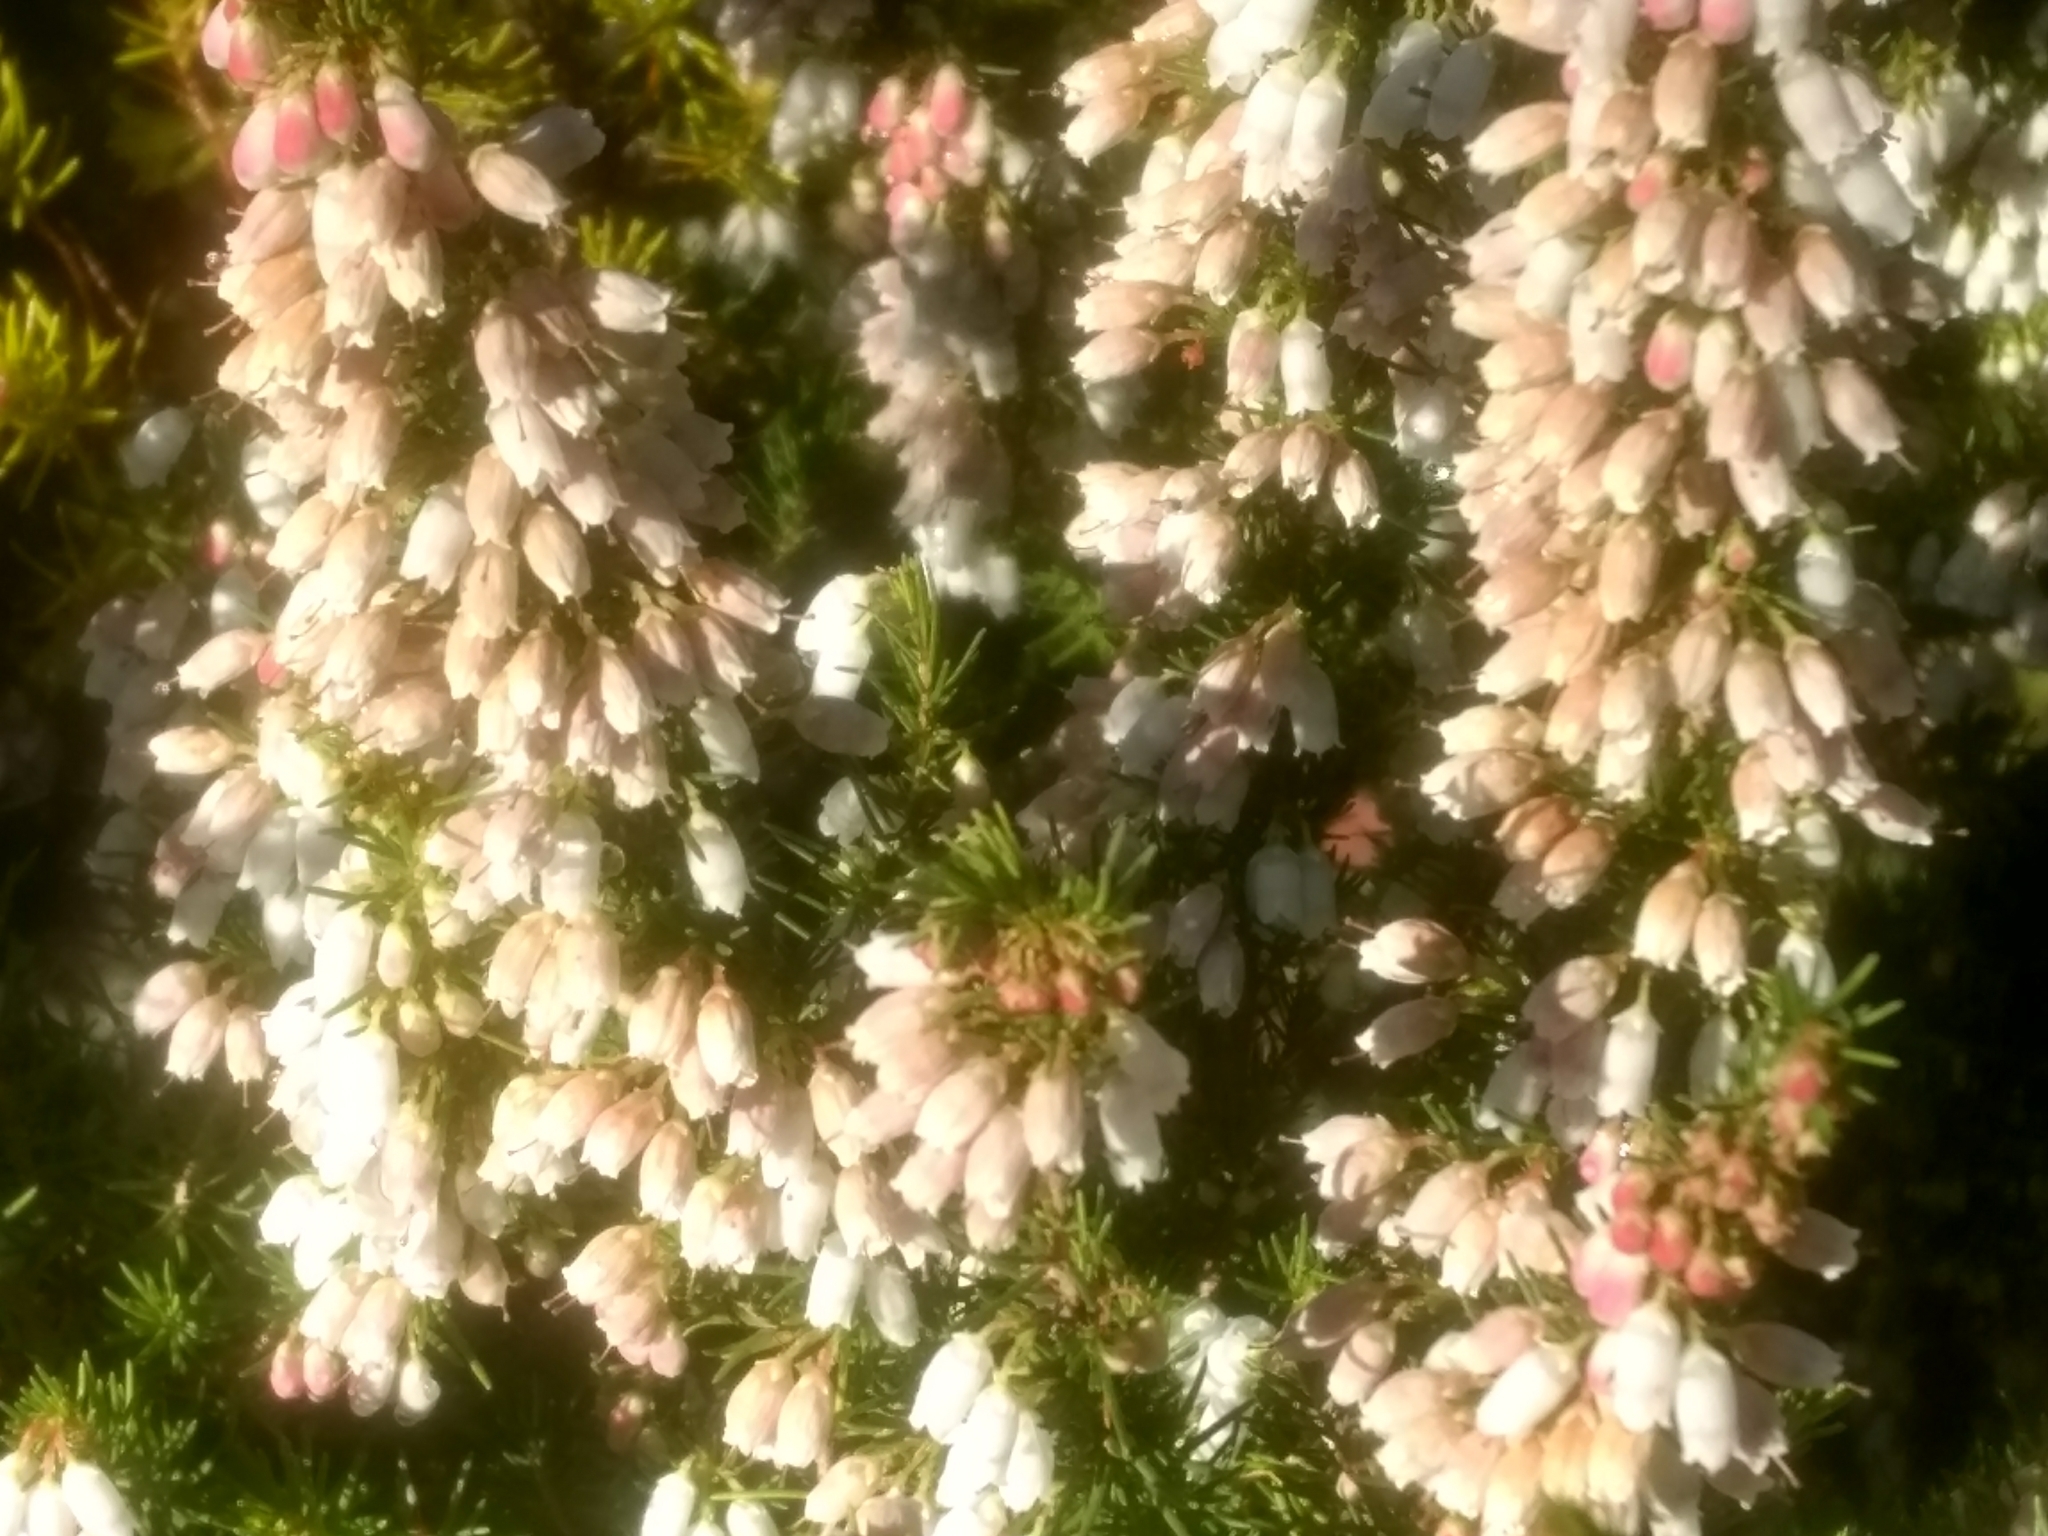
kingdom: Plantae
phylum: Tracheophyta
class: Magnoliopsida
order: Ericales
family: Ericaceae
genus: Erica
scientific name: Erica lusitanica
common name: Spanish heath
